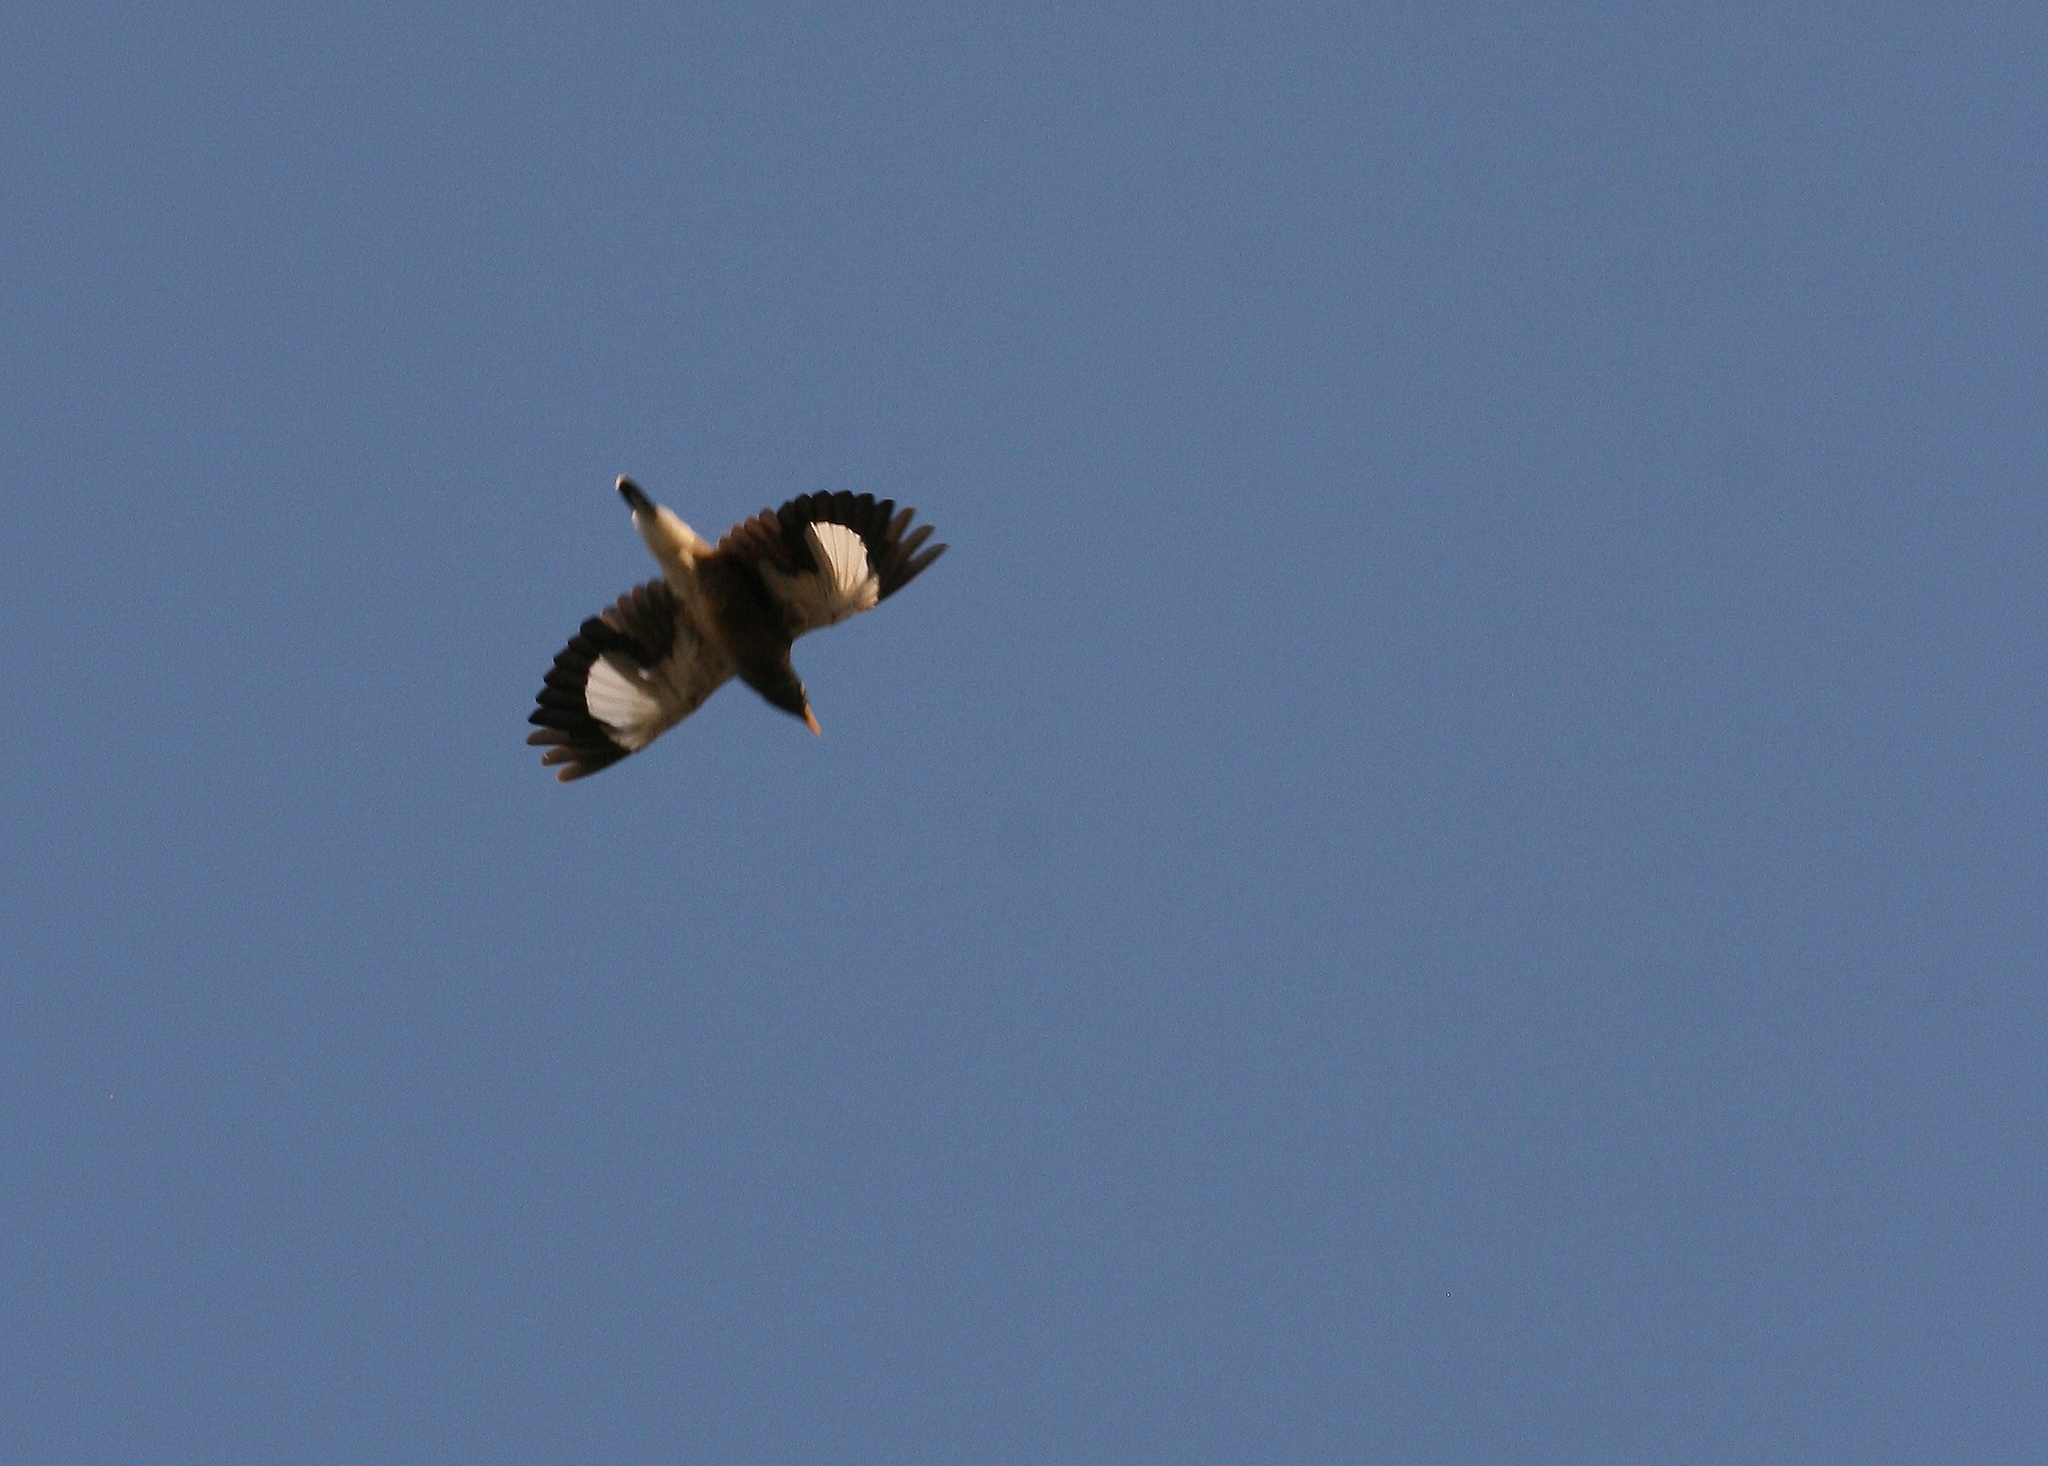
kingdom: Animalia
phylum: Chordata
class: Aves
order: Passeriformes
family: Sturnidae
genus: Acridotheres
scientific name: Acridotheres tristis
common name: Common myna
